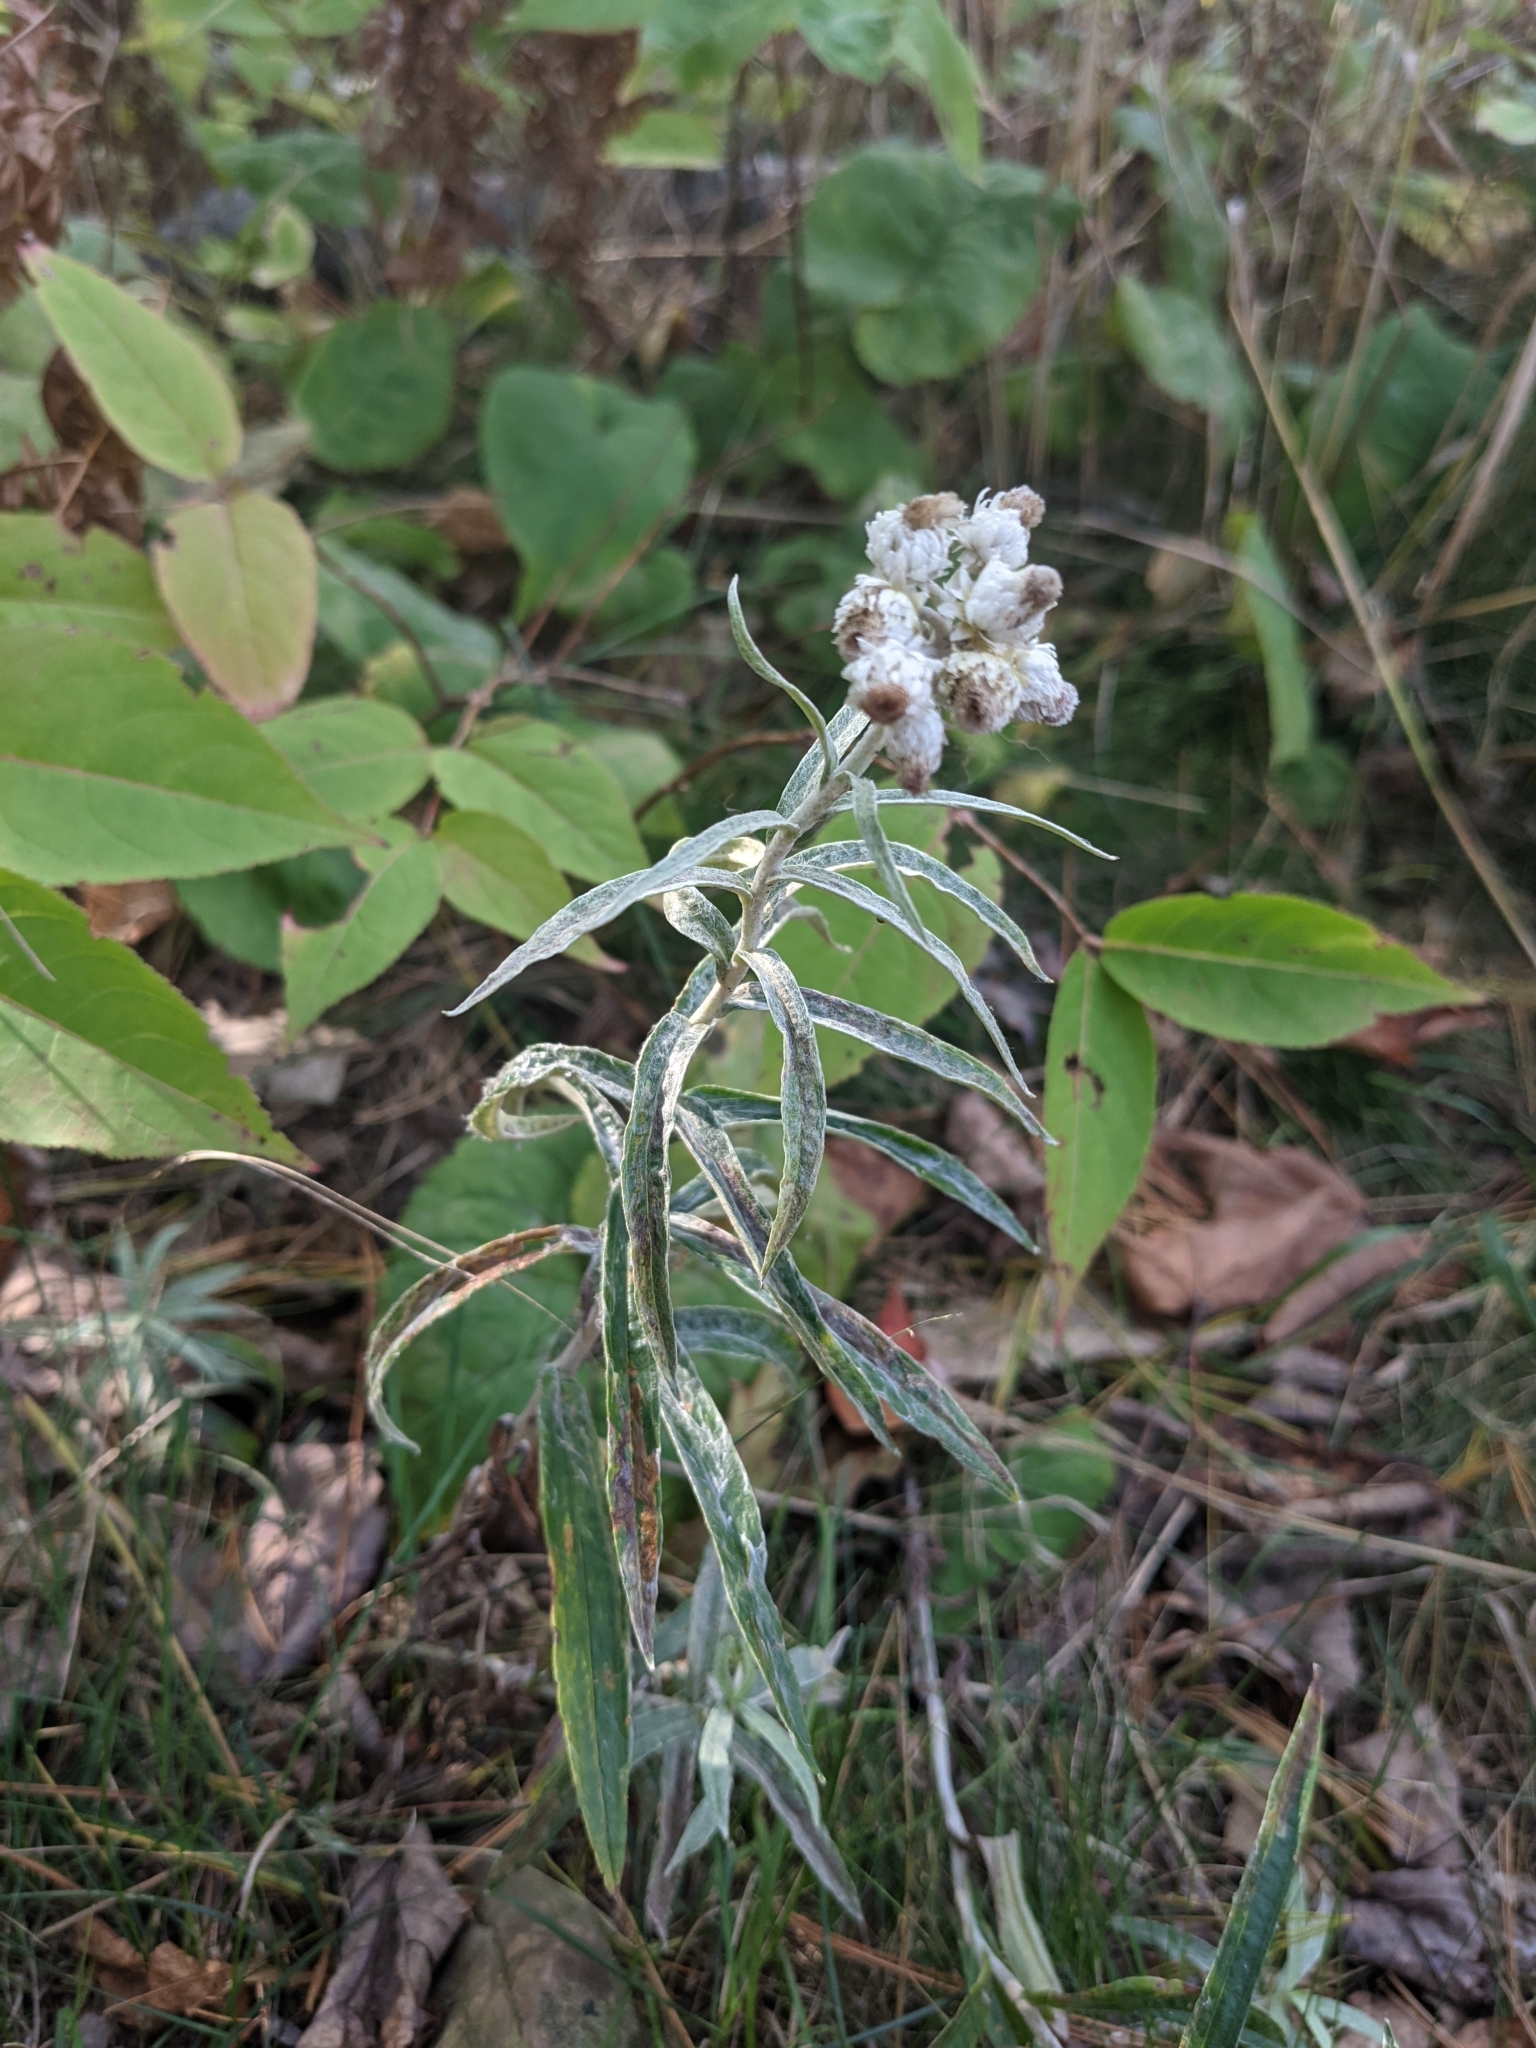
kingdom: Plantae
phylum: Tracheophyta
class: Magnoliopsida
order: Asterales
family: Asteraceae
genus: Anaphalis
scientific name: Anaphalis margaritacea
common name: Pearly everlasting
